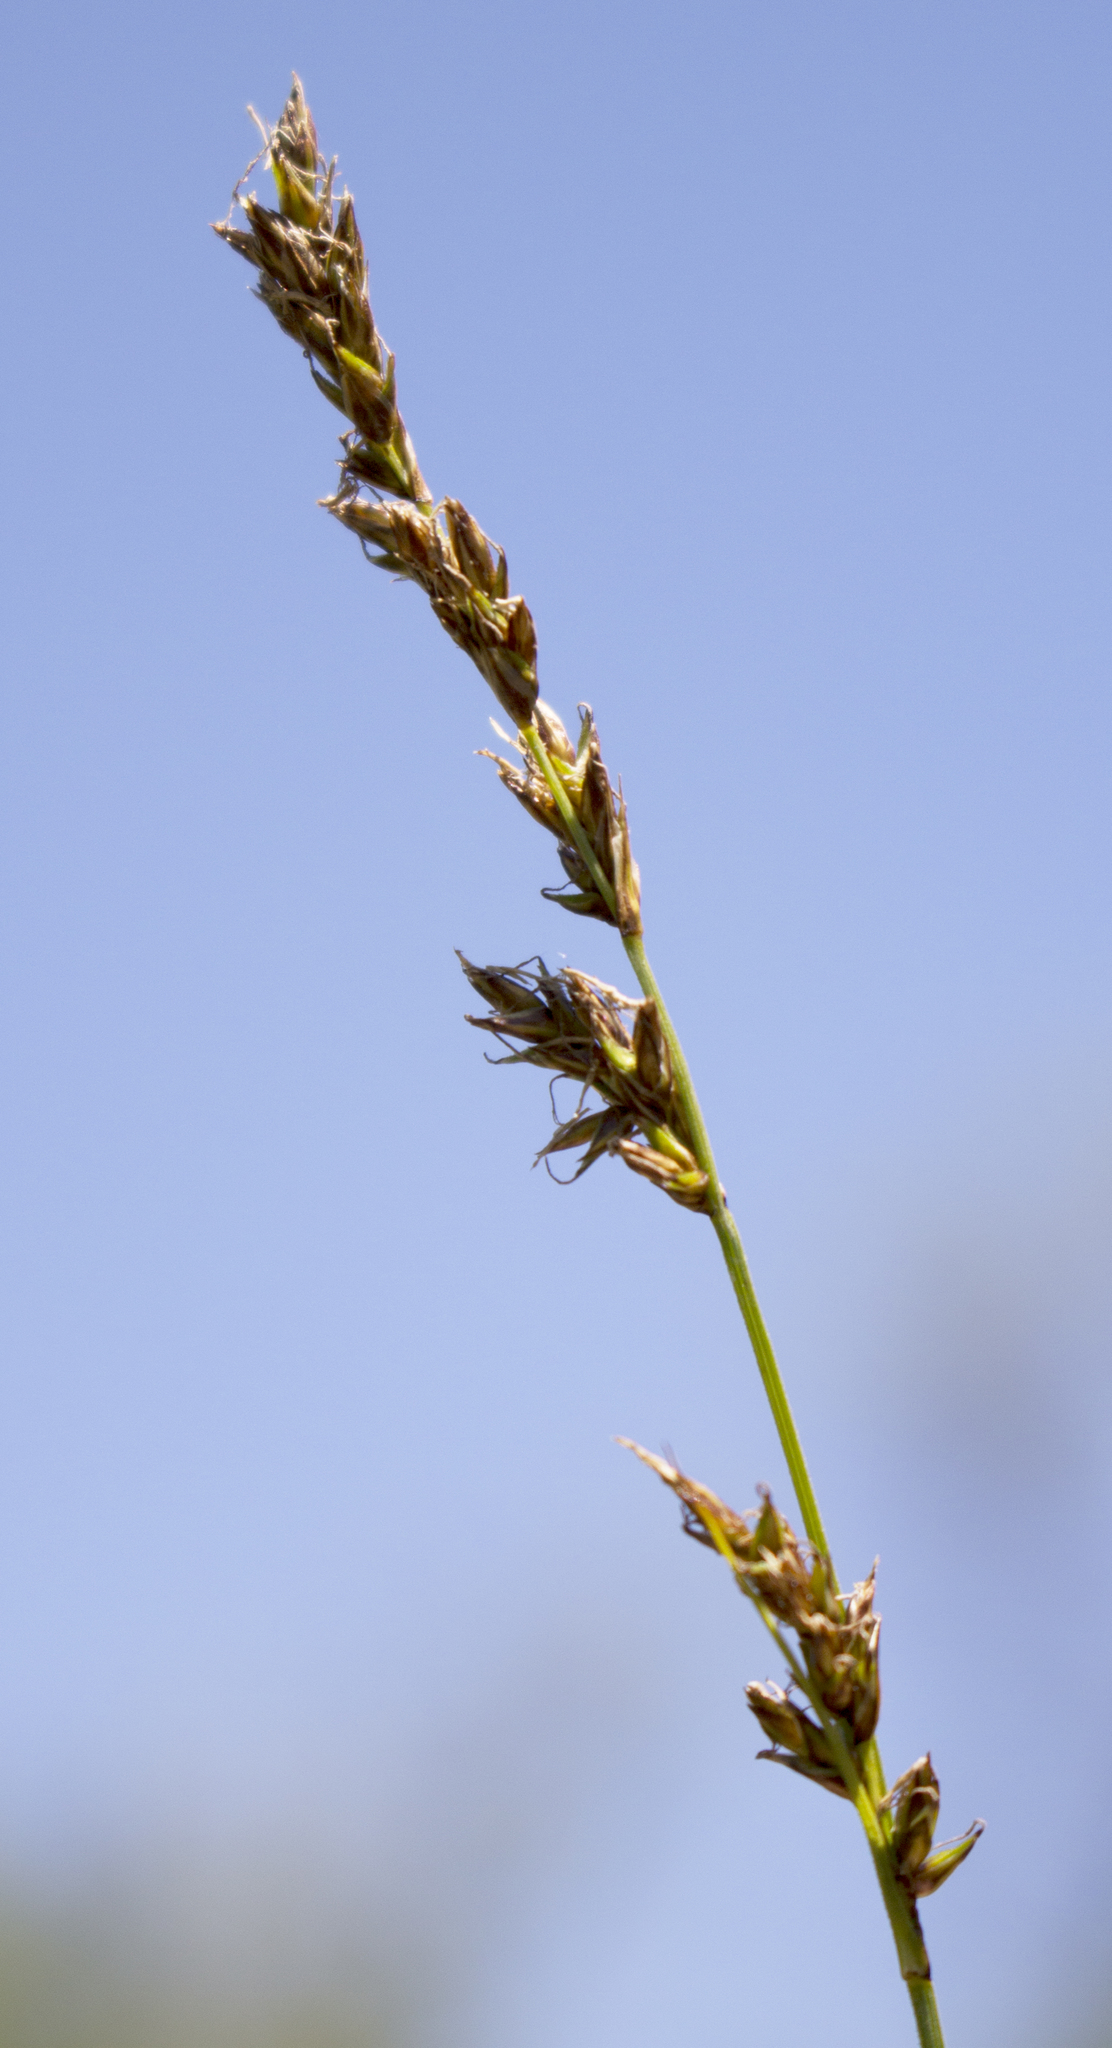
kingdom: Plantae
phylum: Tracheophyta
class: Liliopsida
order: Poales
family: Cyperaceae
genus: Carex
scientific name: Carex prairea
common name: Prairie sedge
